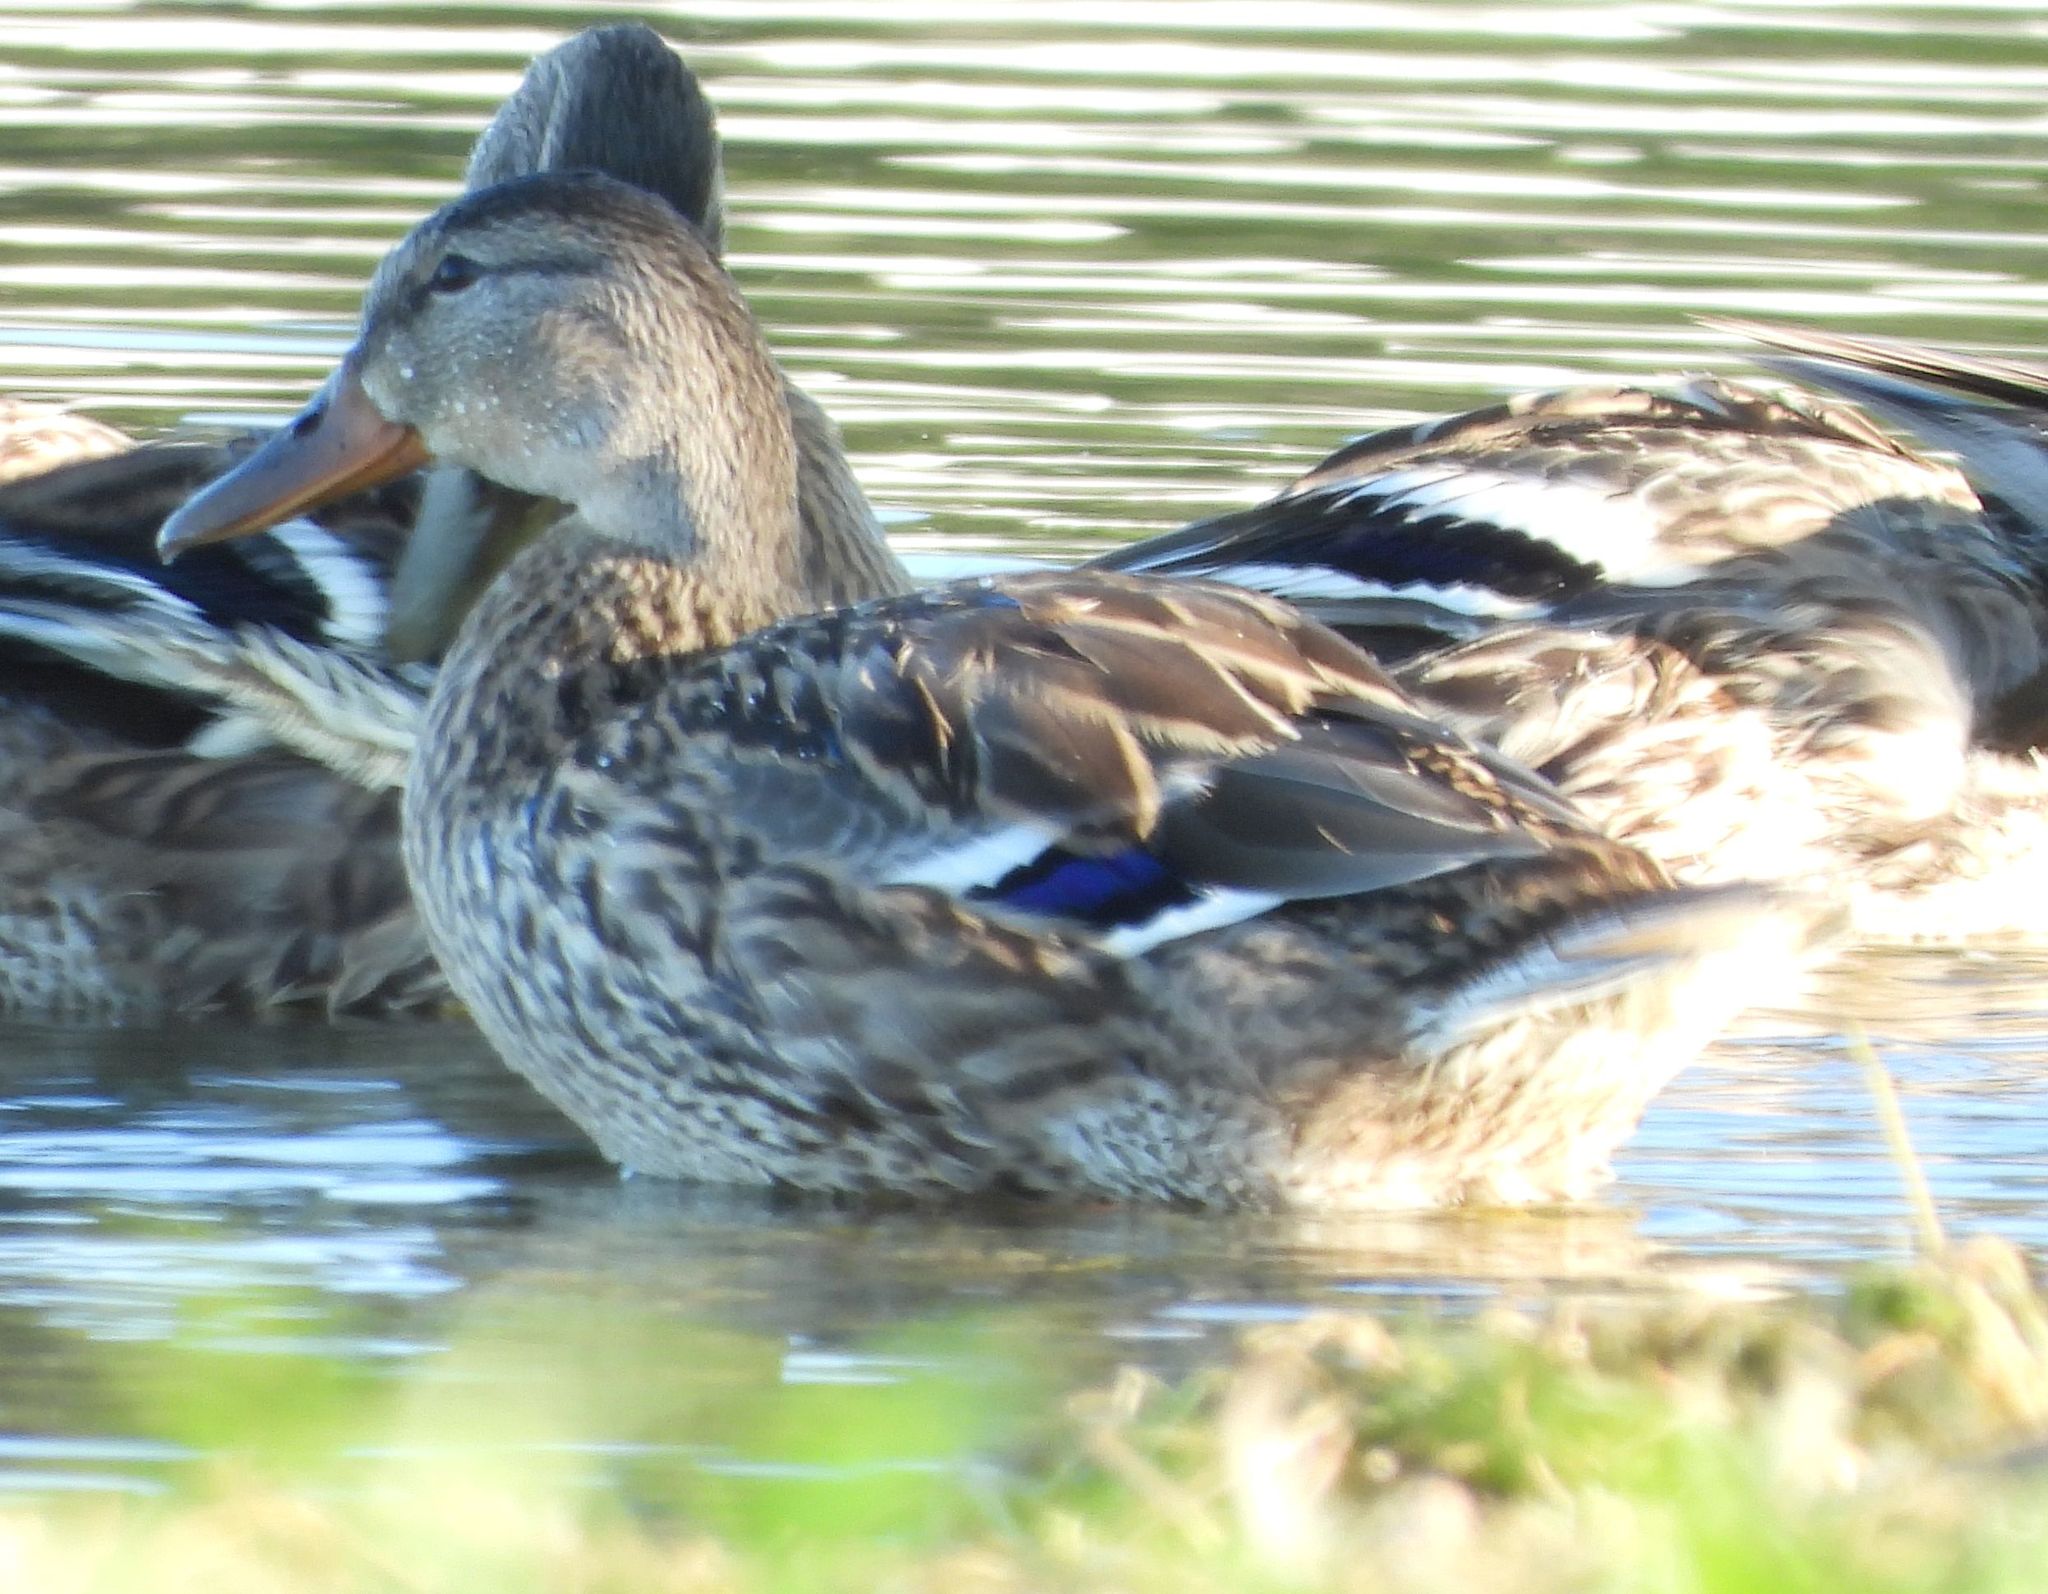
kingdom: Animalia
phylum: Chordata
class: Aves
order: Anseriformes
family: Anatidae
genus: Anas
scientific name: Anas platyrhynchos
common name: Mallard
